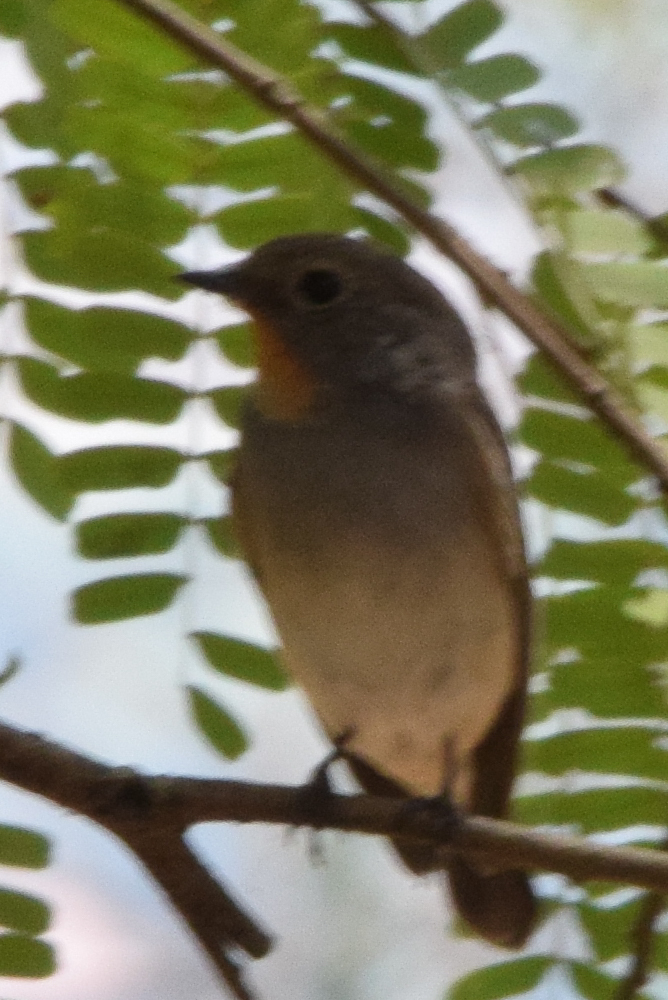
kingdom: Animalia
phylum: Chordata
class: Aves
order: Passeriformes
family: Muscicapidae
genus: Ficedula
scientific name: Ficedula albicilla
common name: Taiga flycatcher
